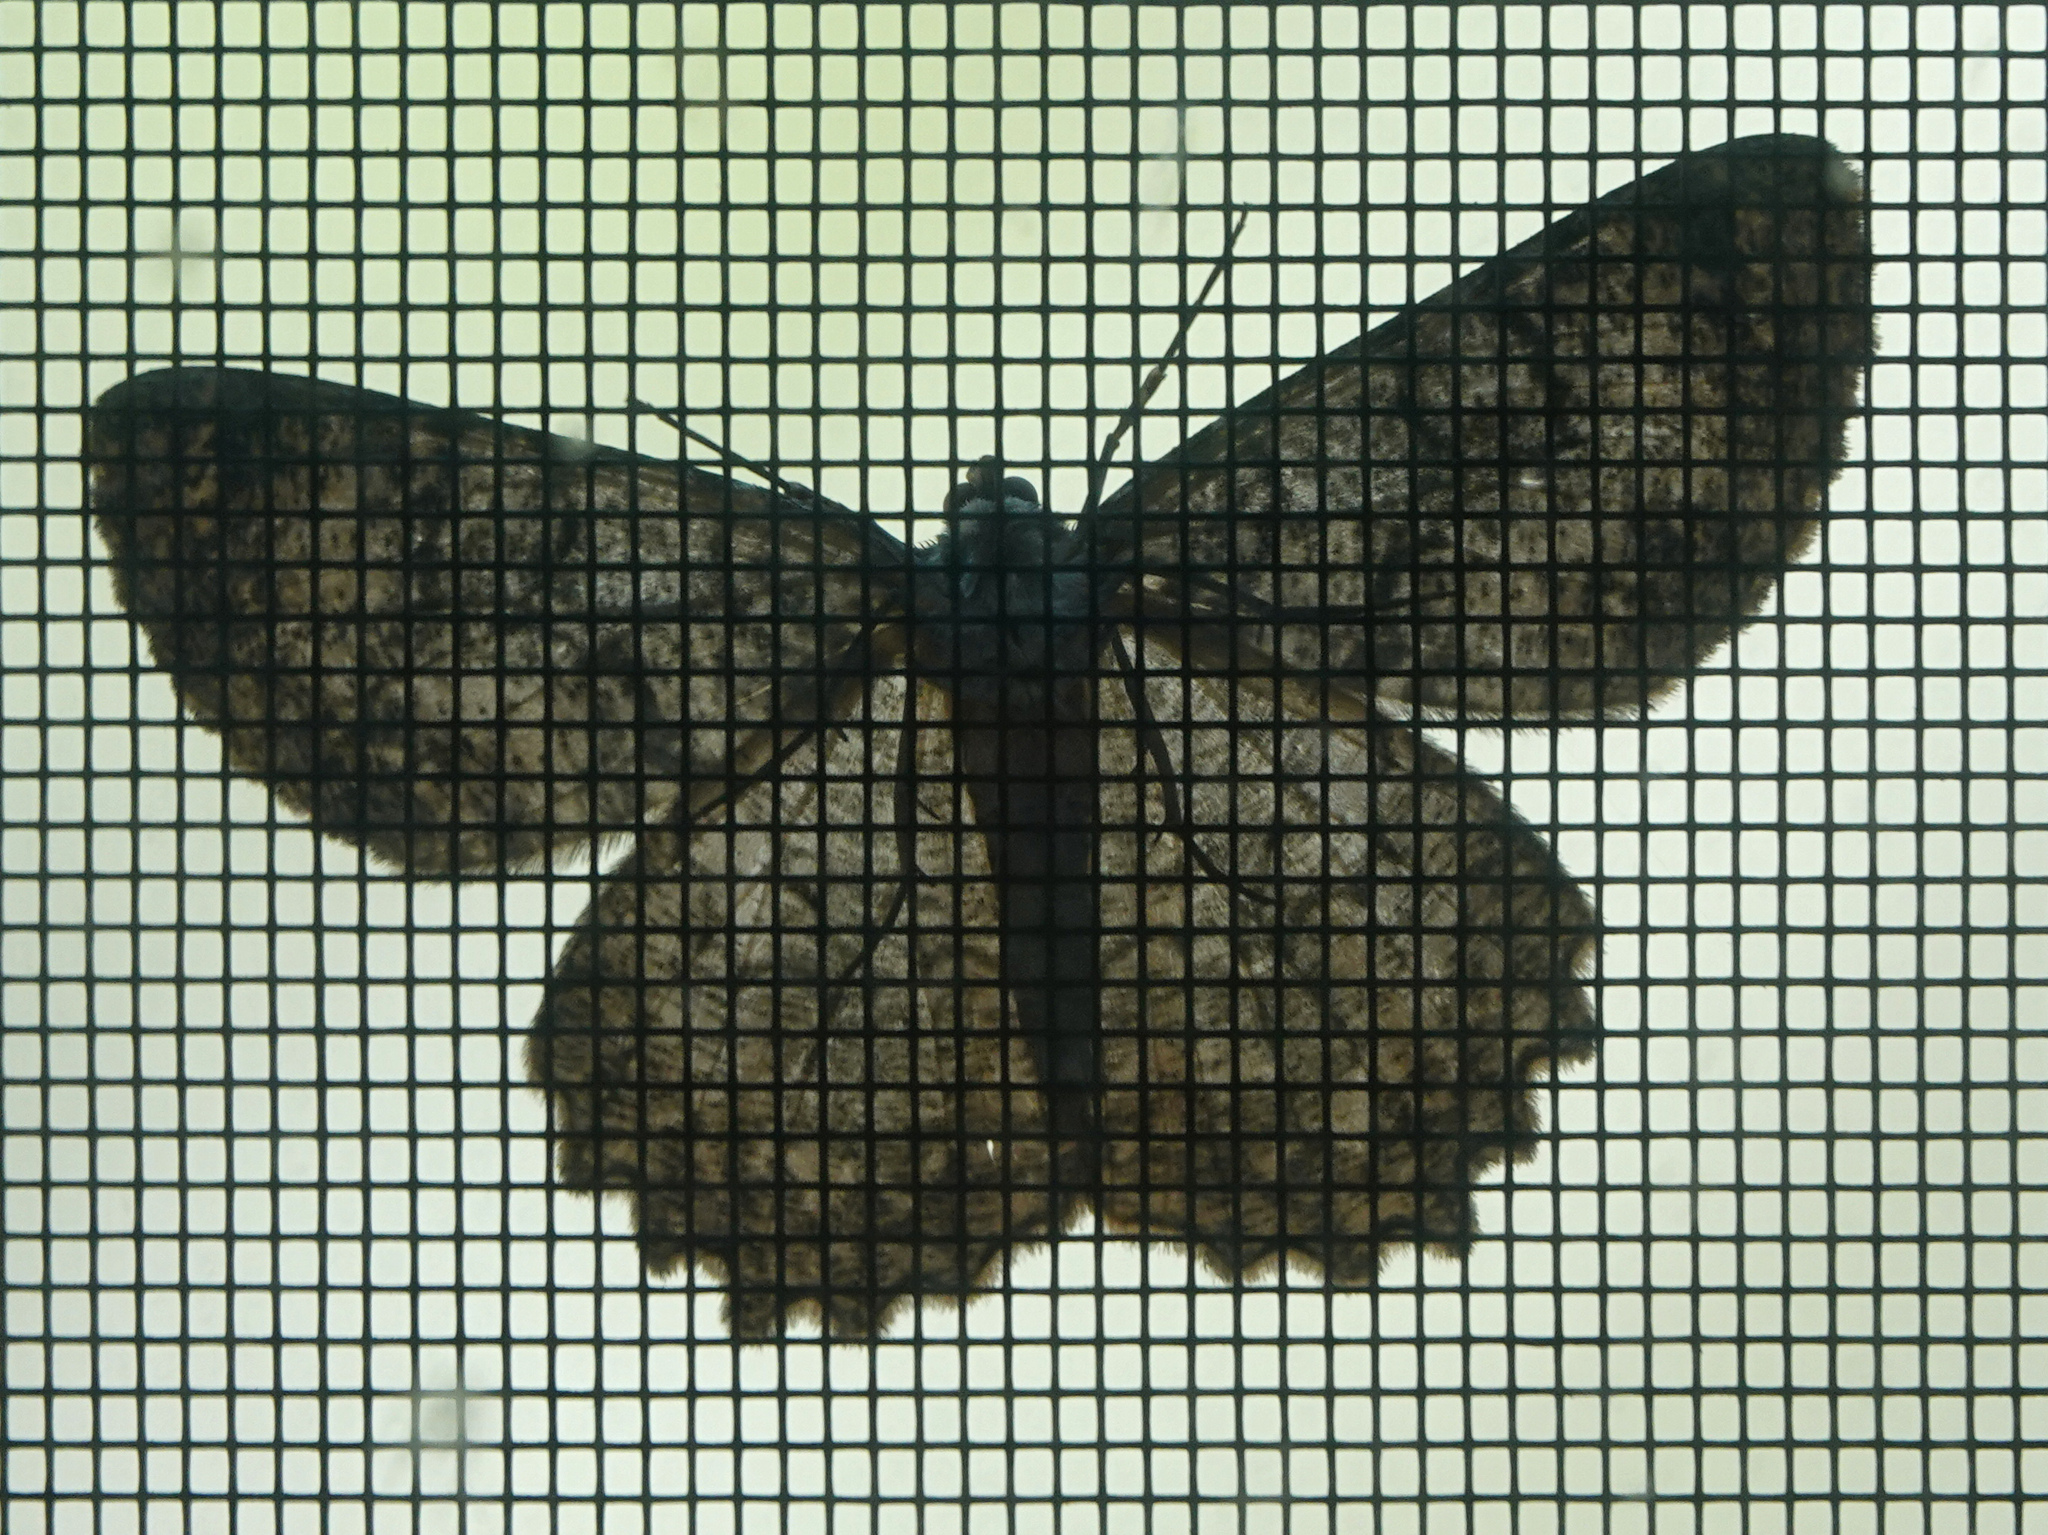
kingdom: Animalia
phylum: Arthropoda
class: Insecta
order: Lepidoptera
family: Geometridae
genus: Epimecis
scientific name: Epimecis hortaria
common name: Tulip-tree beauty
